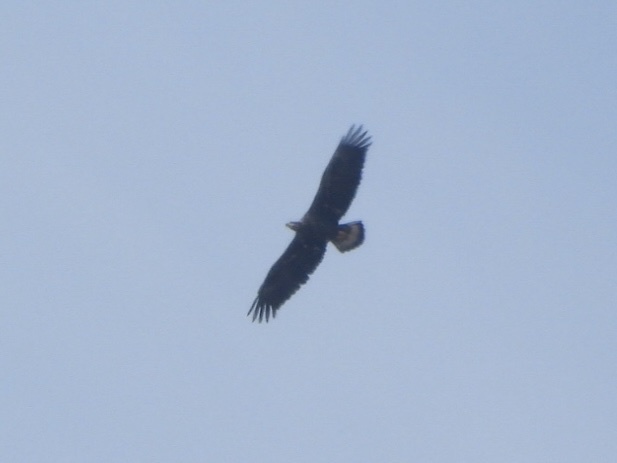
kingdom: Animalia
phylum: Chordata
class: Aves
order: Accipitriformes
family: Accipitridae
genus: Haliaeetus
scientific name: Haliaeetus leucocephalus
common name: Bald eagle
